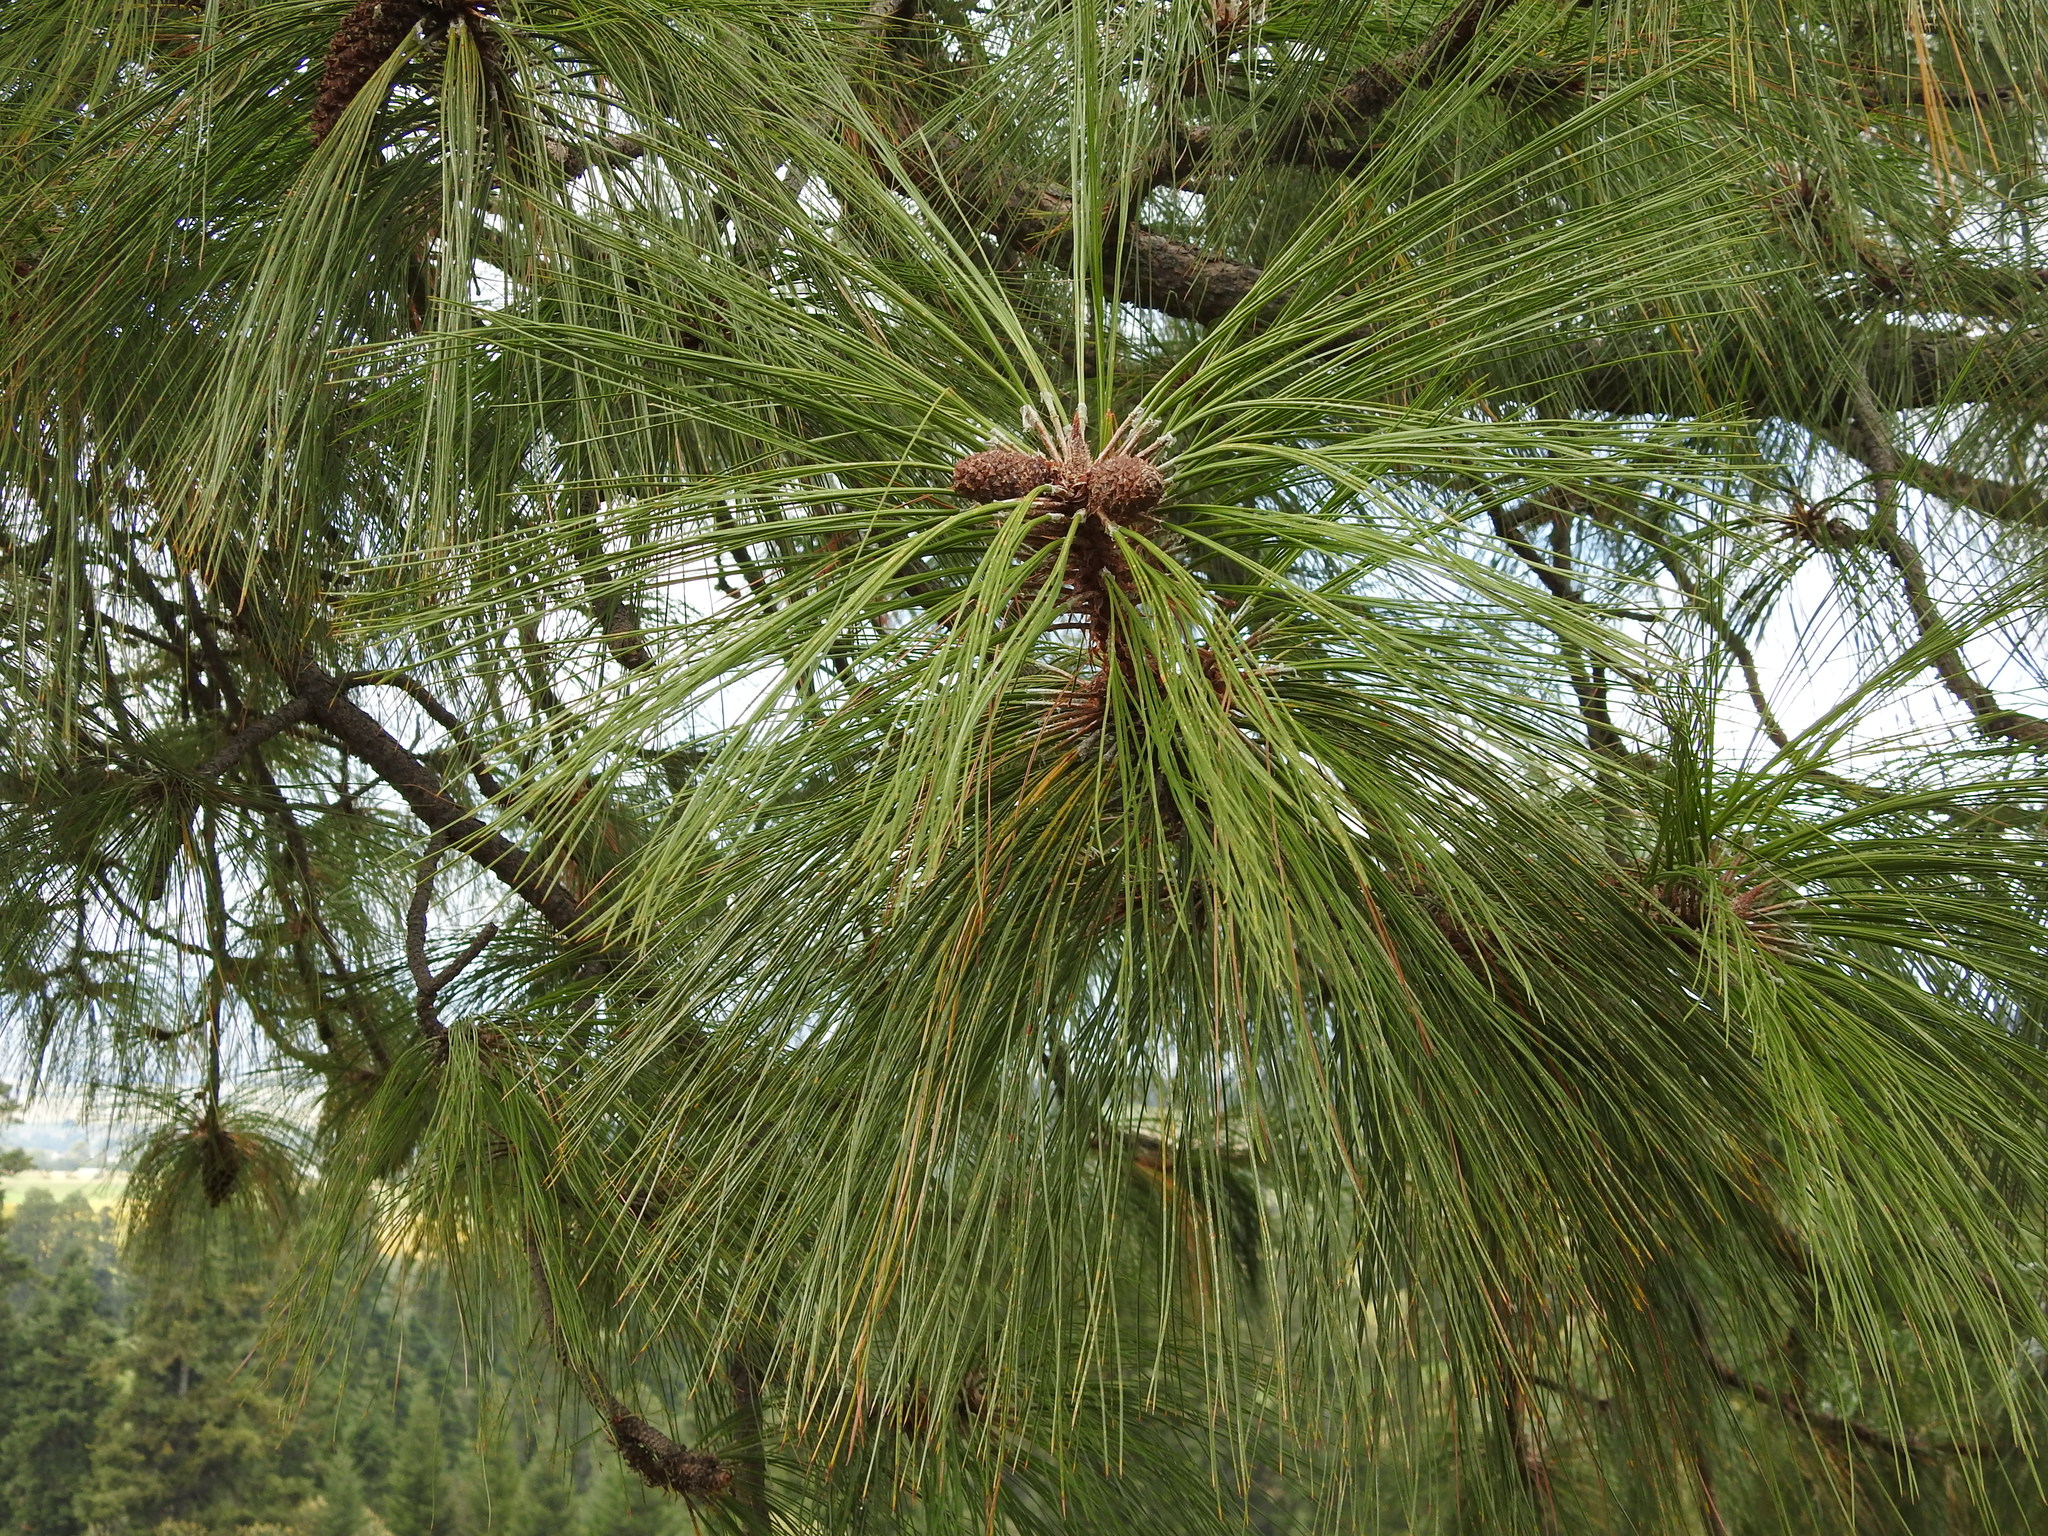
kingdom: Plantae
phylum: Tracheophyta
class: Pinopsida
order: Pinales
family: Pinaceae
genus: Pinus
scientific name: Pinus montezumae
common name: Montezuma pine
